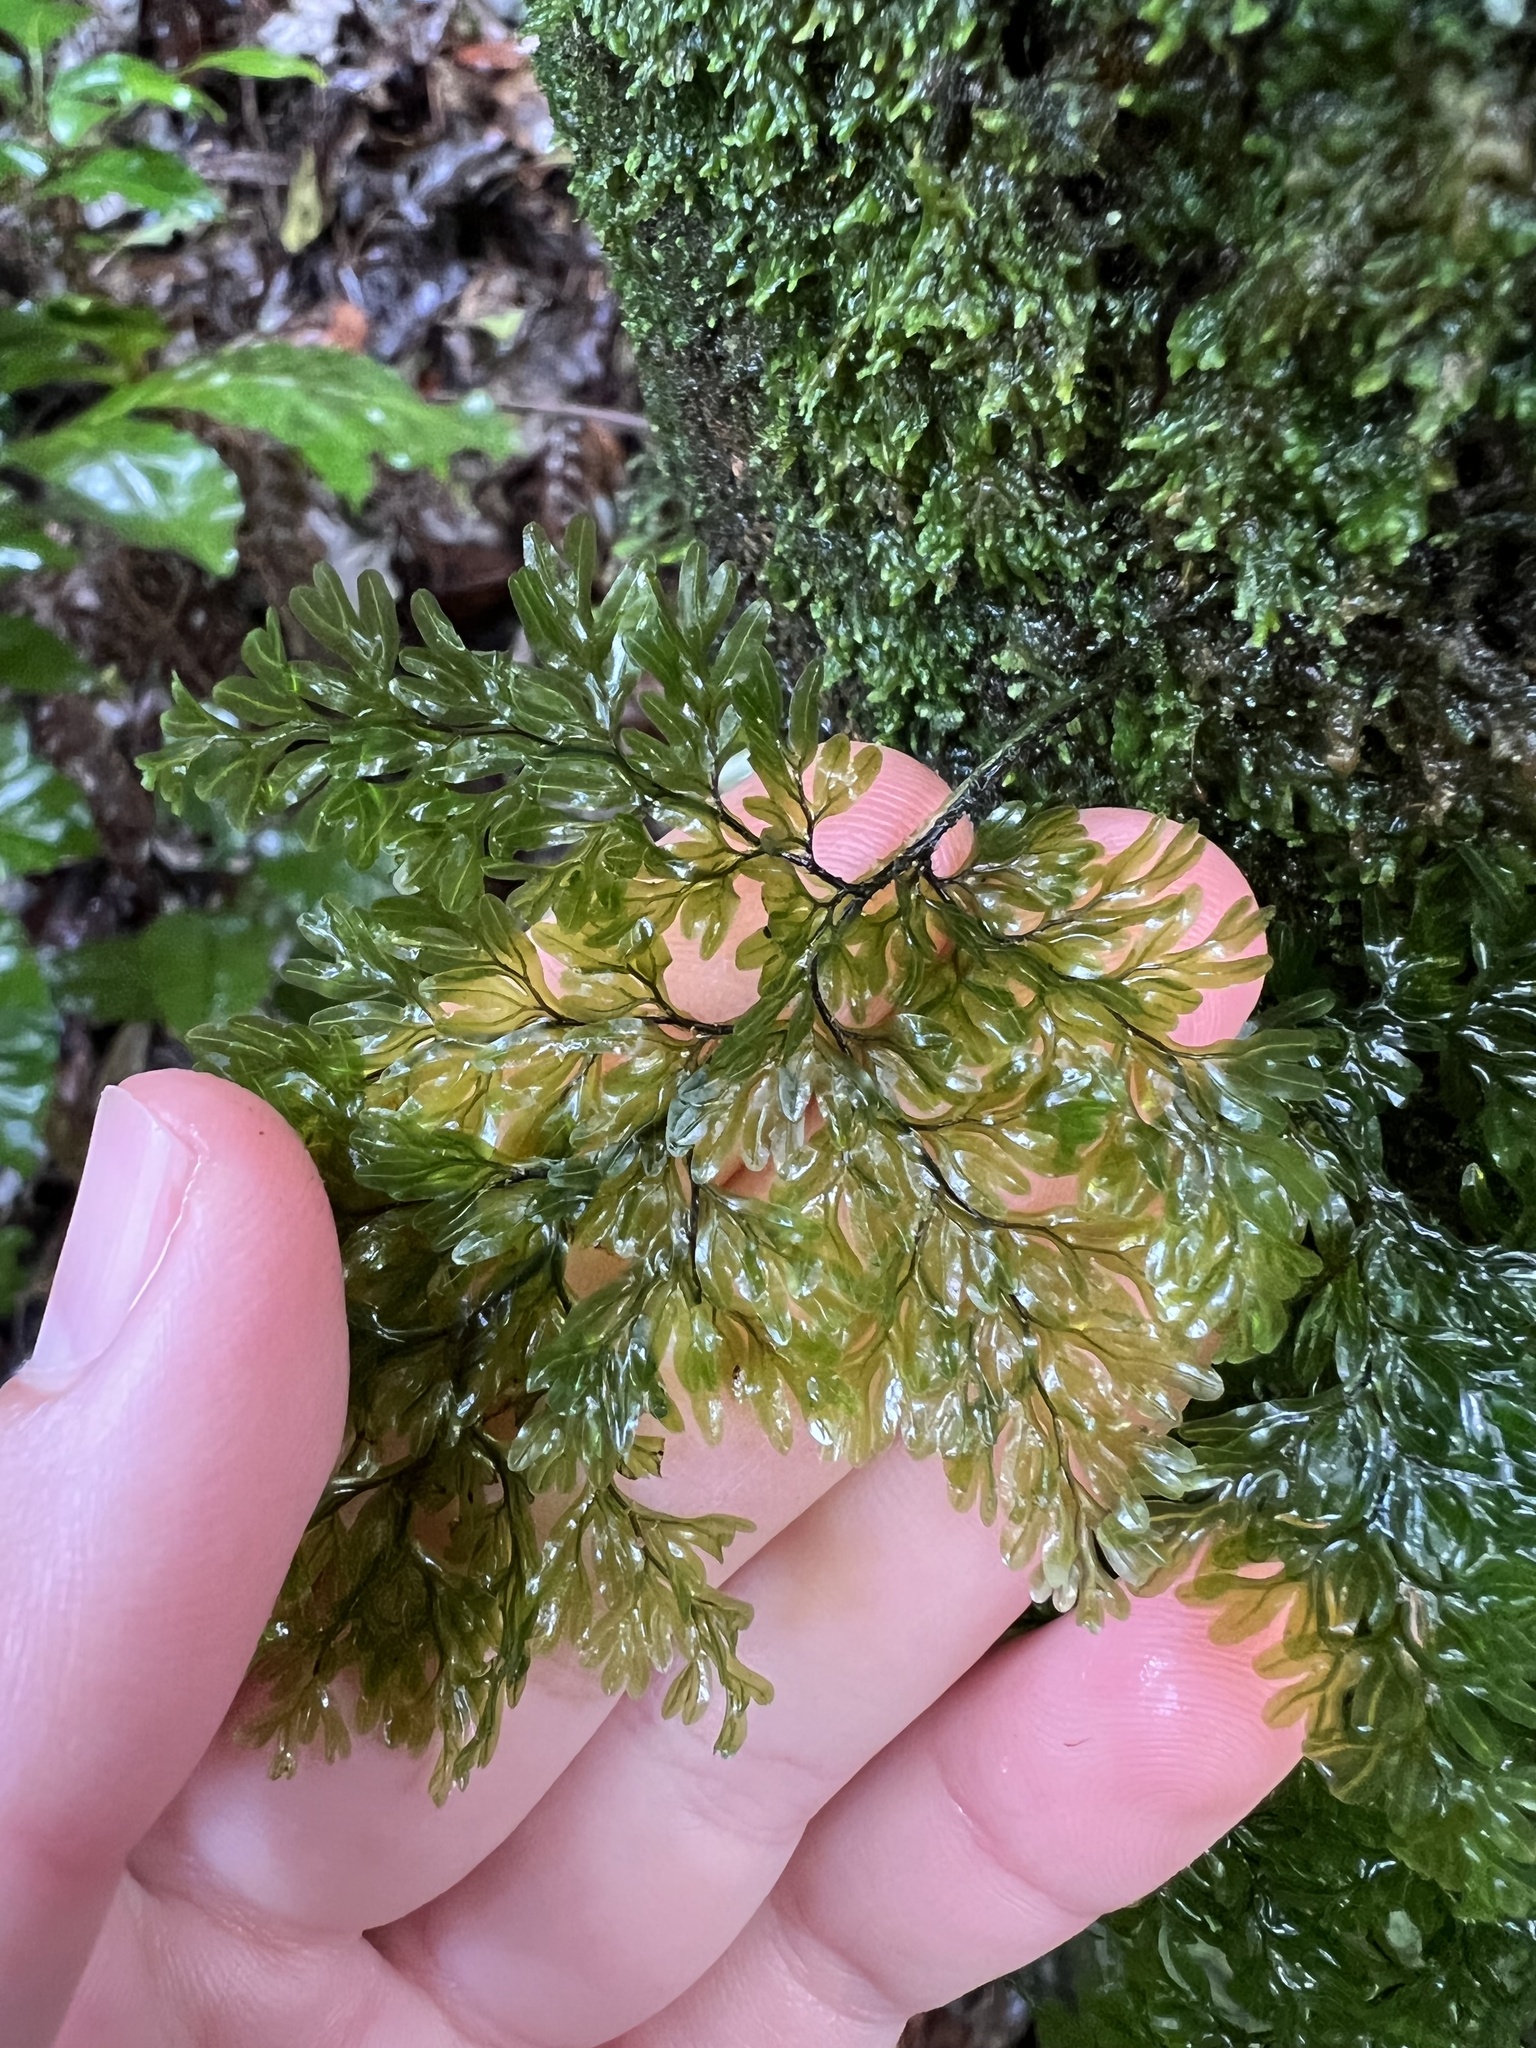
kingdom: Plantae
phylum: Tracheophyta
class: Polypodiopsida
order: Hymenophyllales
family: Hymenophyllaceae
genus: Hymenophyllum
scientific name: Hymenophyllum sanguinolentum
